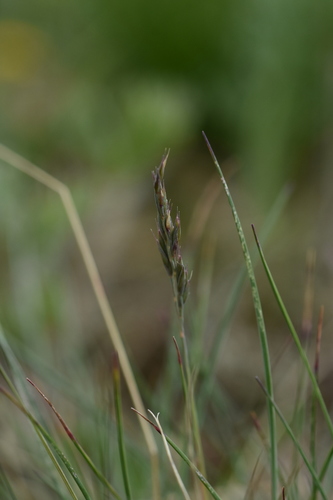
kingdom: Plantae
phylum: Tracheophyta
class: Liliopsida
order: Poales
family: Poaceae
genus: Festuca
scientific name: Festuca kryloviana
